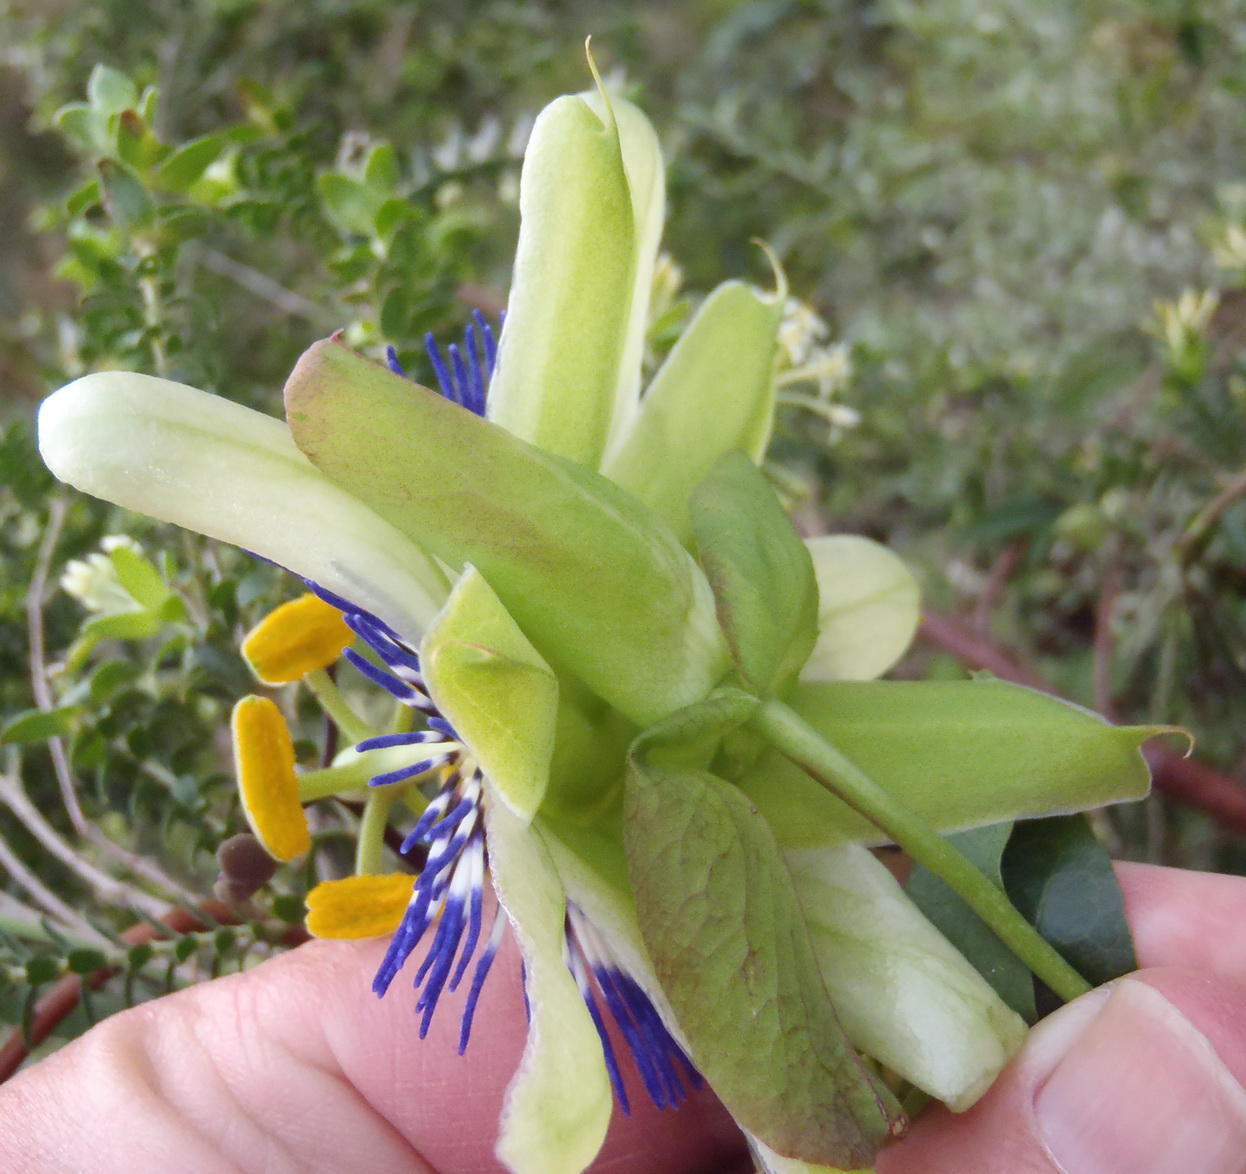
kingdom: Plantae
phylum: Tracheophyta
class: Magnoliopsida
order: Malpighiales
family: Passifloraceae
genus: Passiflora
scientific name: Passiflora caerulea
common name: Blue passionflower
